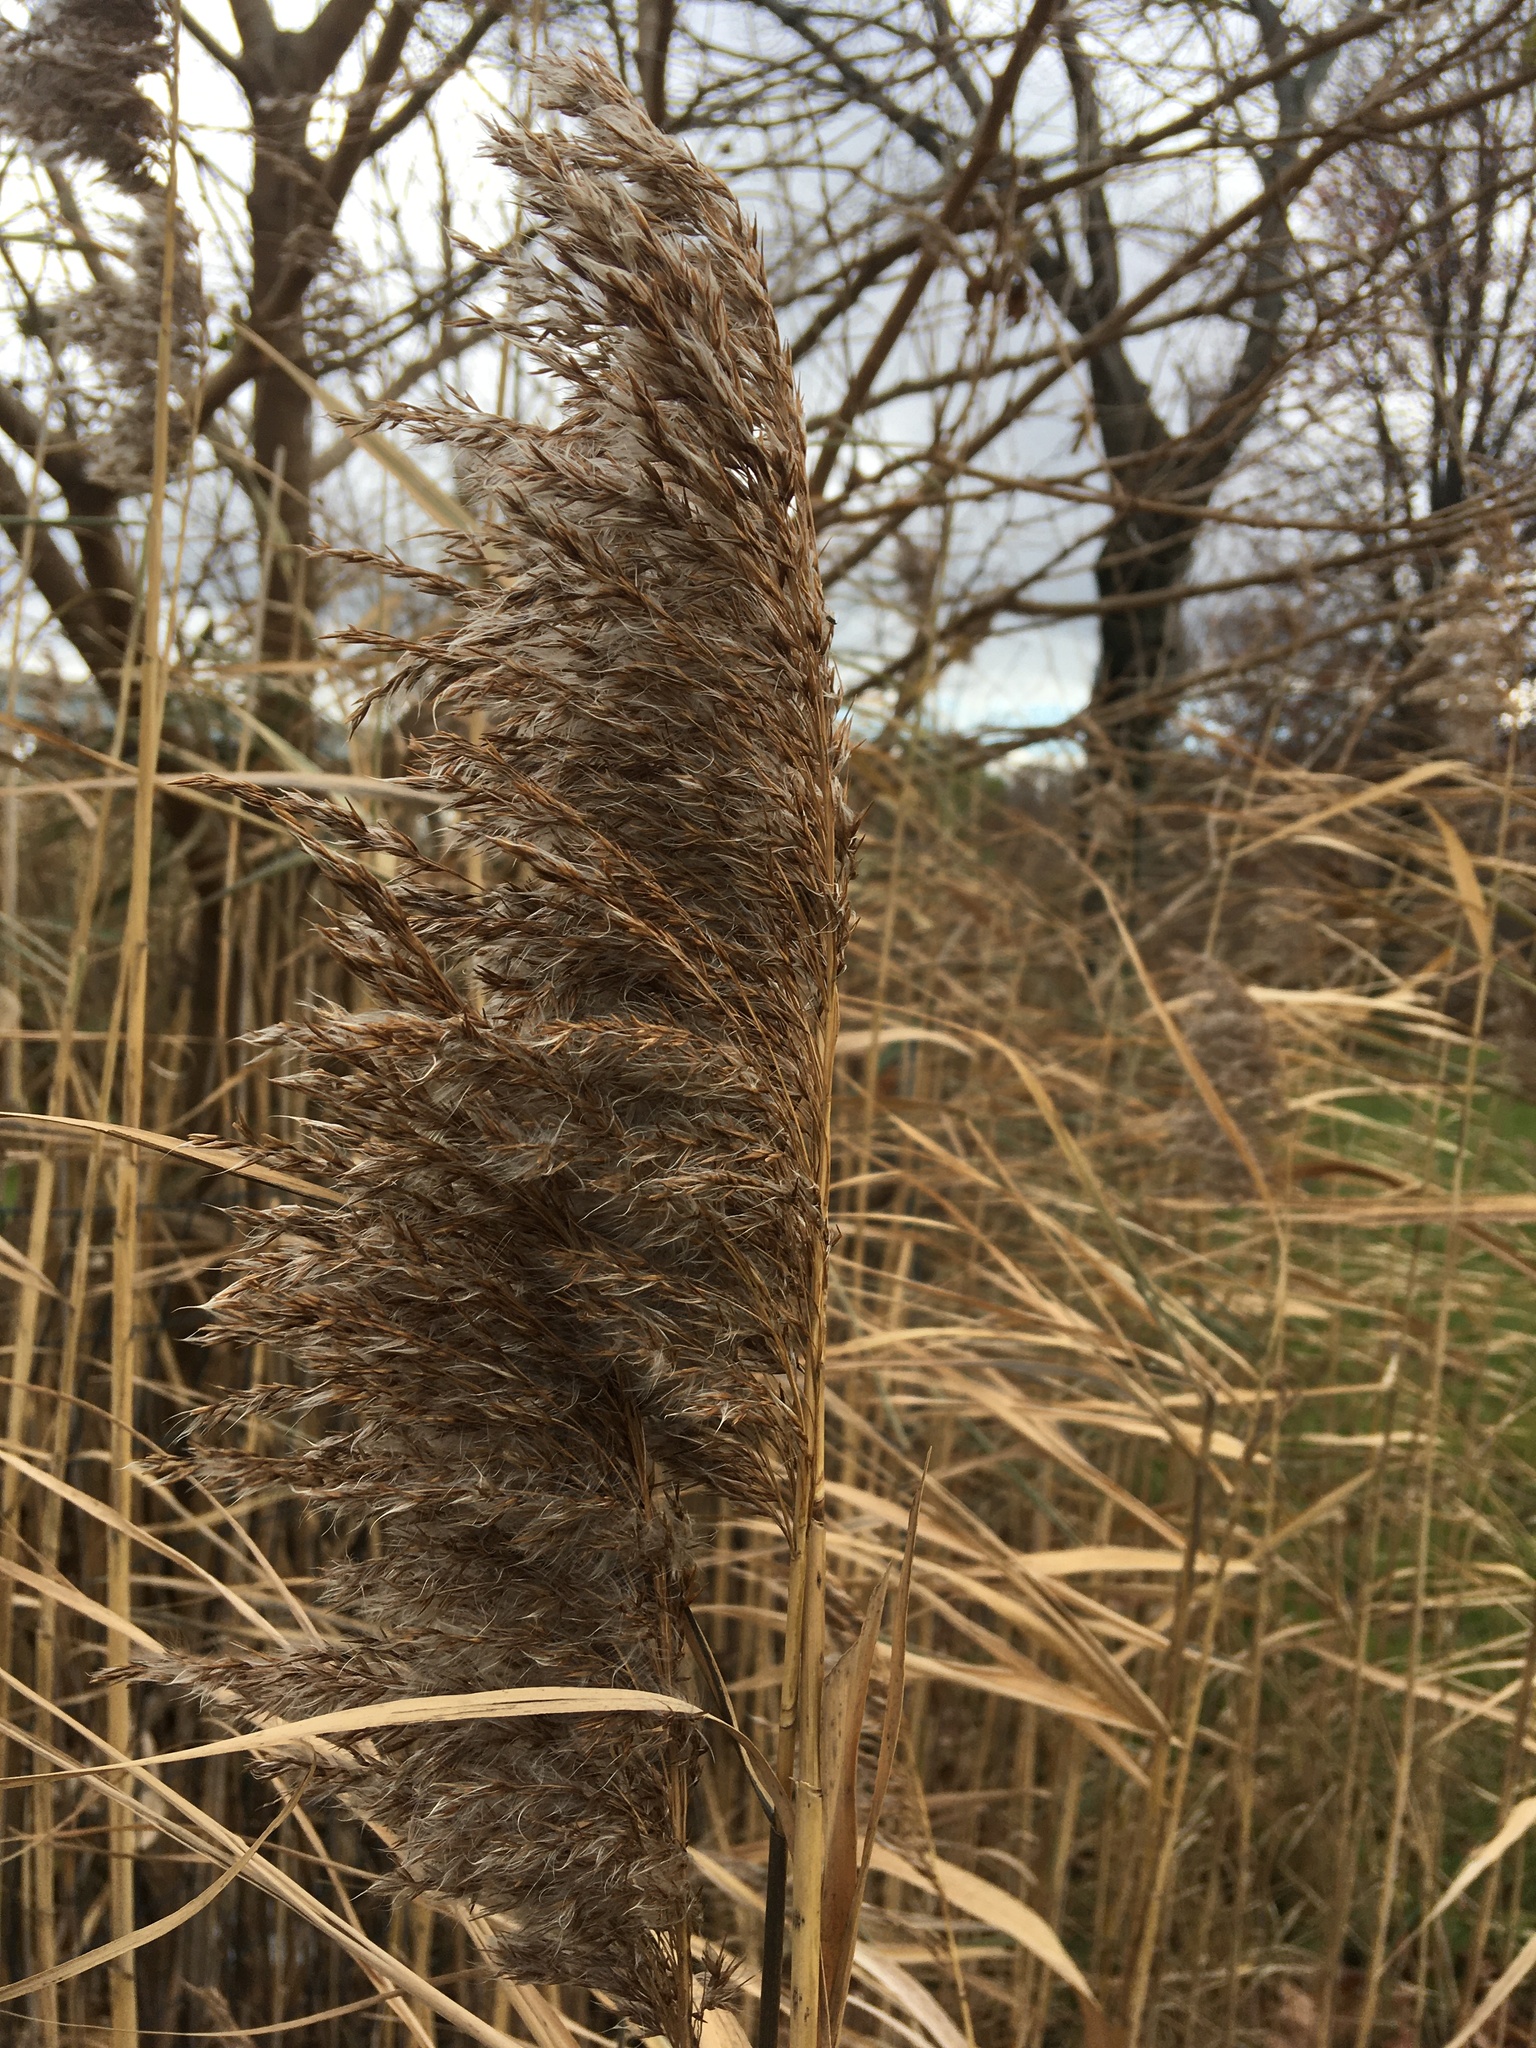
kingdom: Plantae
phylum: Tracheophyta
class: Liliopsida
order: Poales
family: Poaceae
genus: Phragmites
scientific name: Phragmites australis
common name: Common reed
